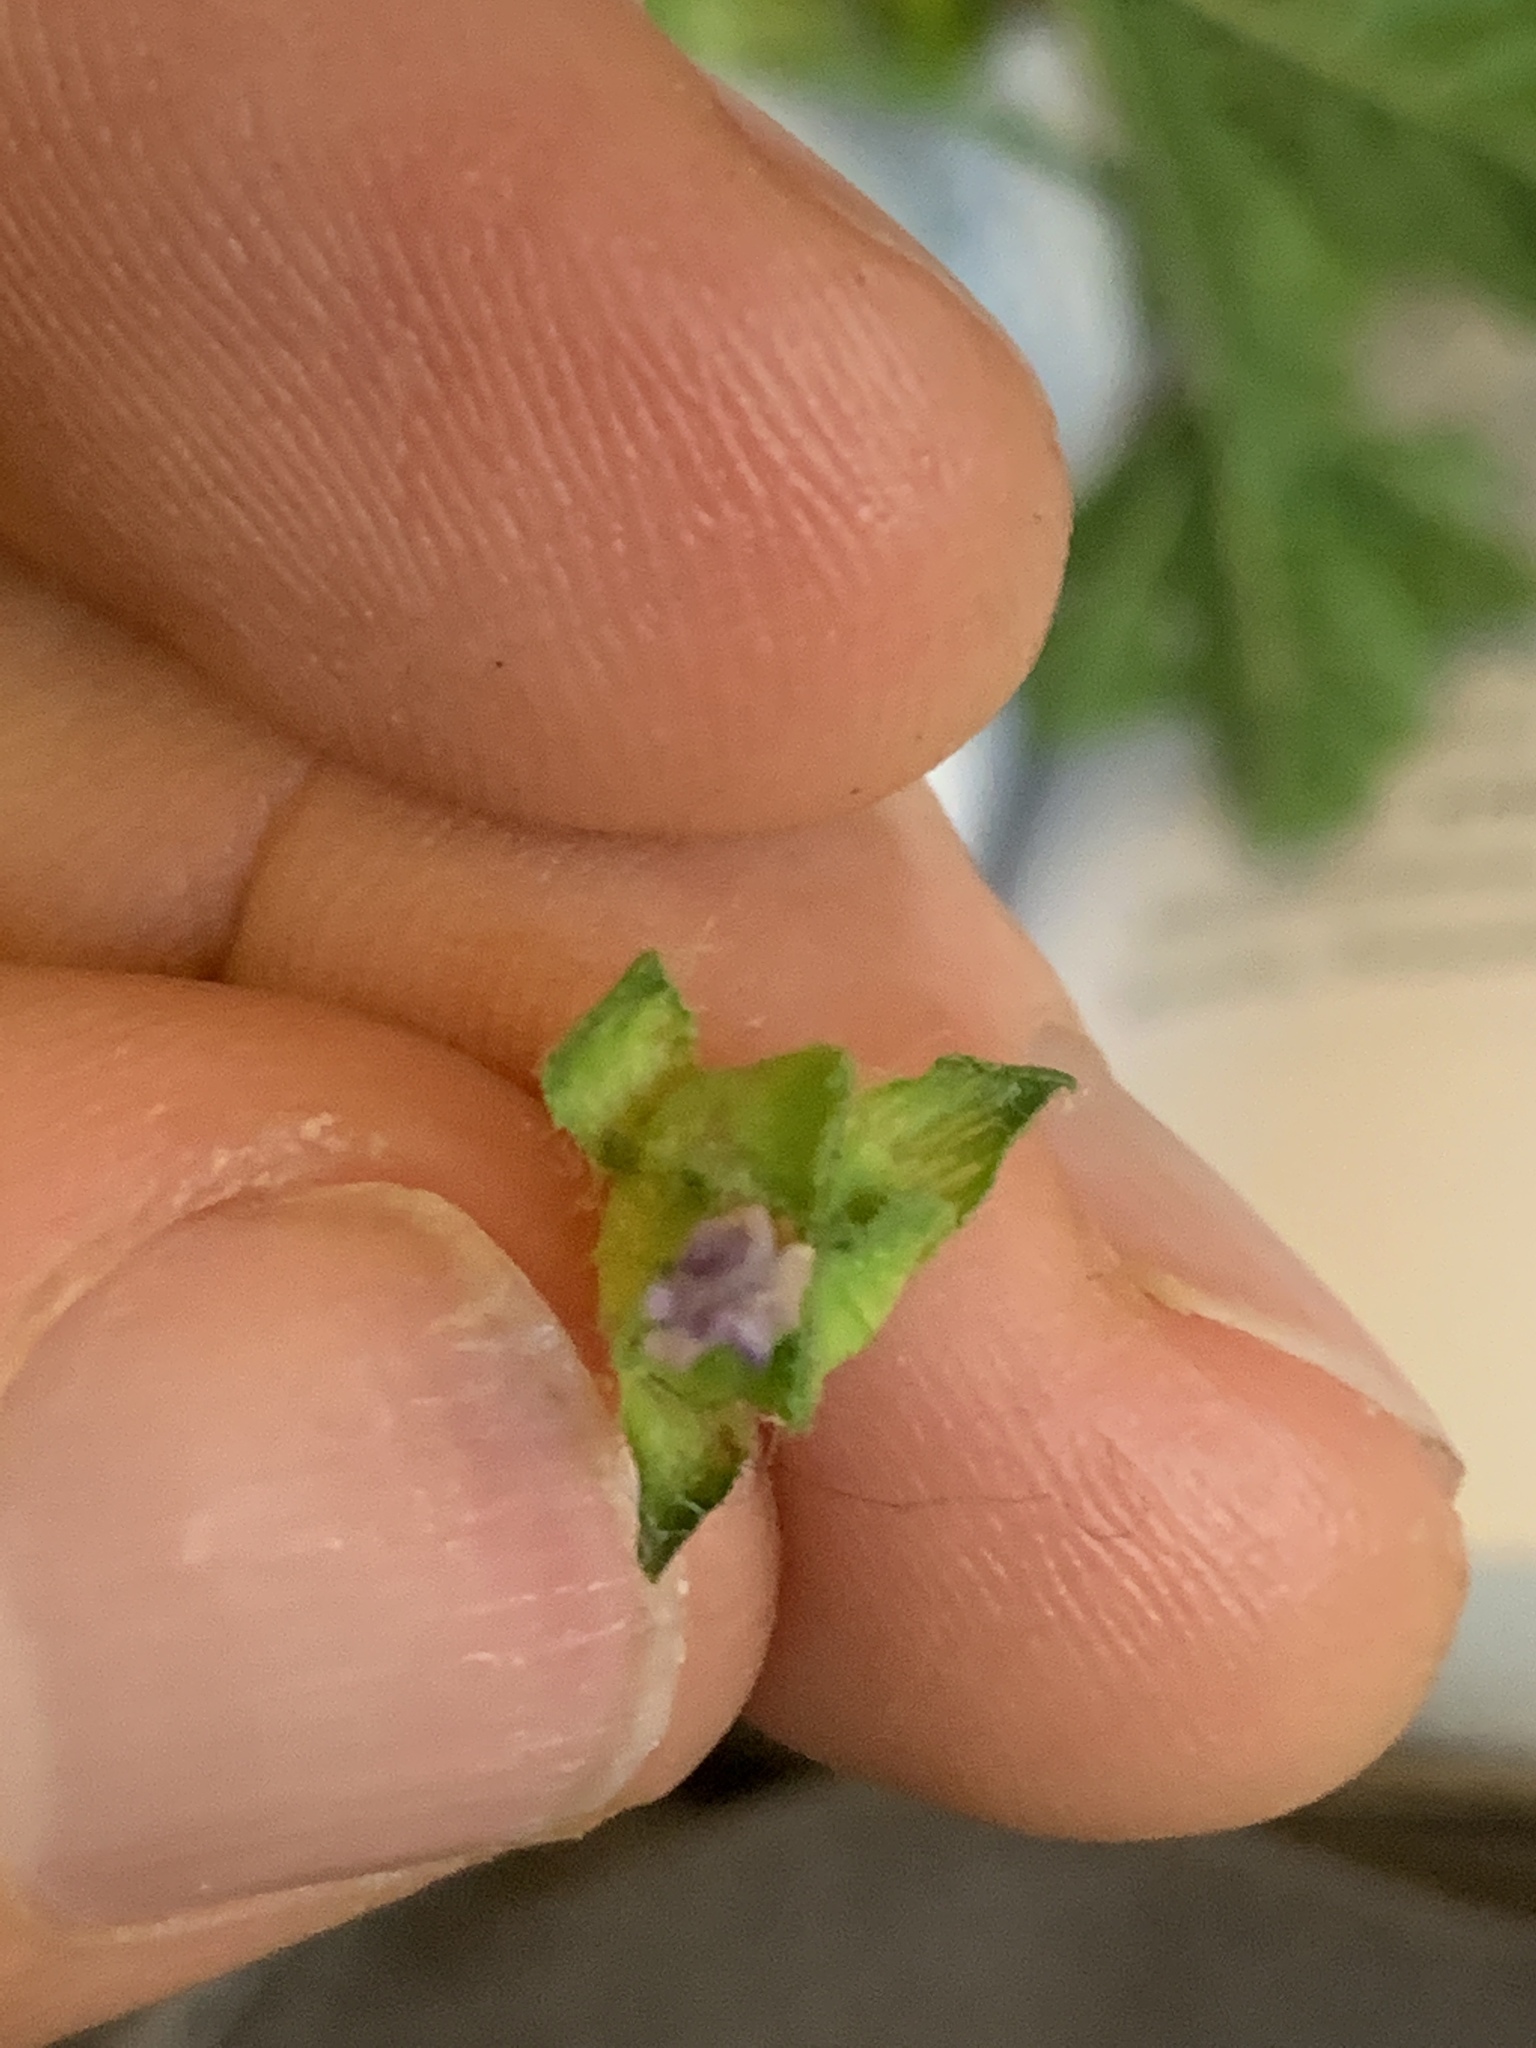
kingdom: Plantae
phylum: Tracheophyta
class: Magnoliopsida
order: Malvales
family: Malvaceae
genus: Malva
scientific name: Malva nicaeensis
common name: French mallow
